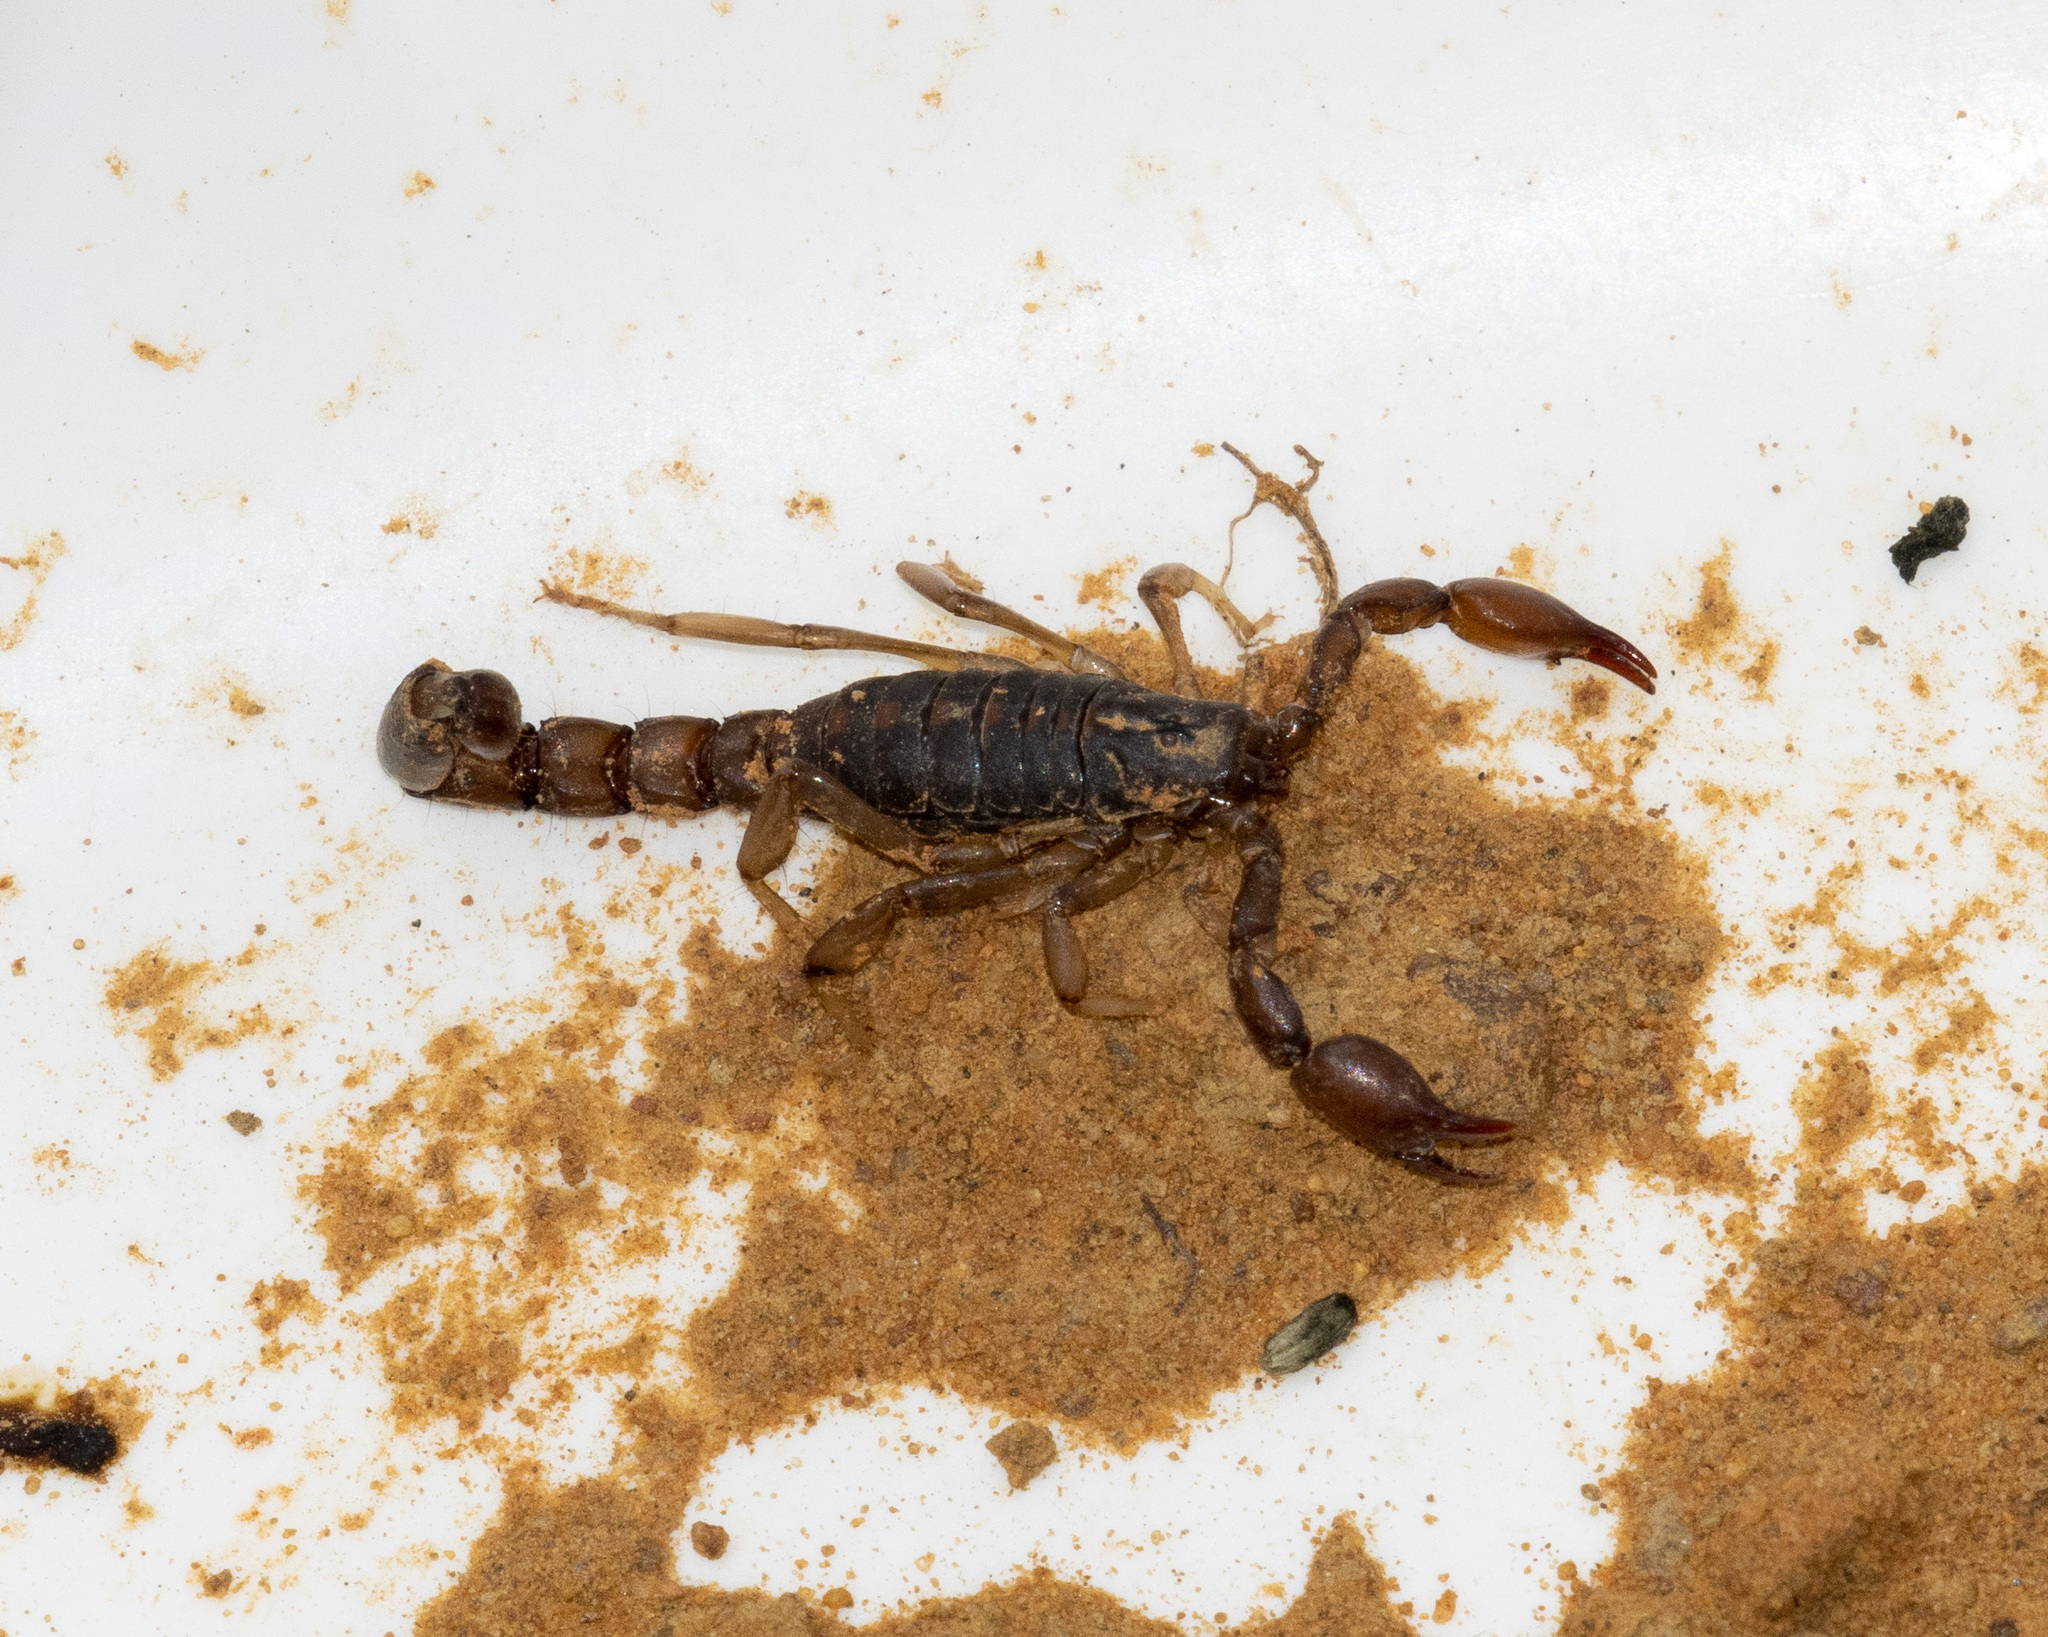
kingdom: Animalia
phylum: Arthropoda
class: Arachnida
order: Scorpiones
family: Bothriuridae
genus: Bothriurus
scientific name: Bothriurus asper
